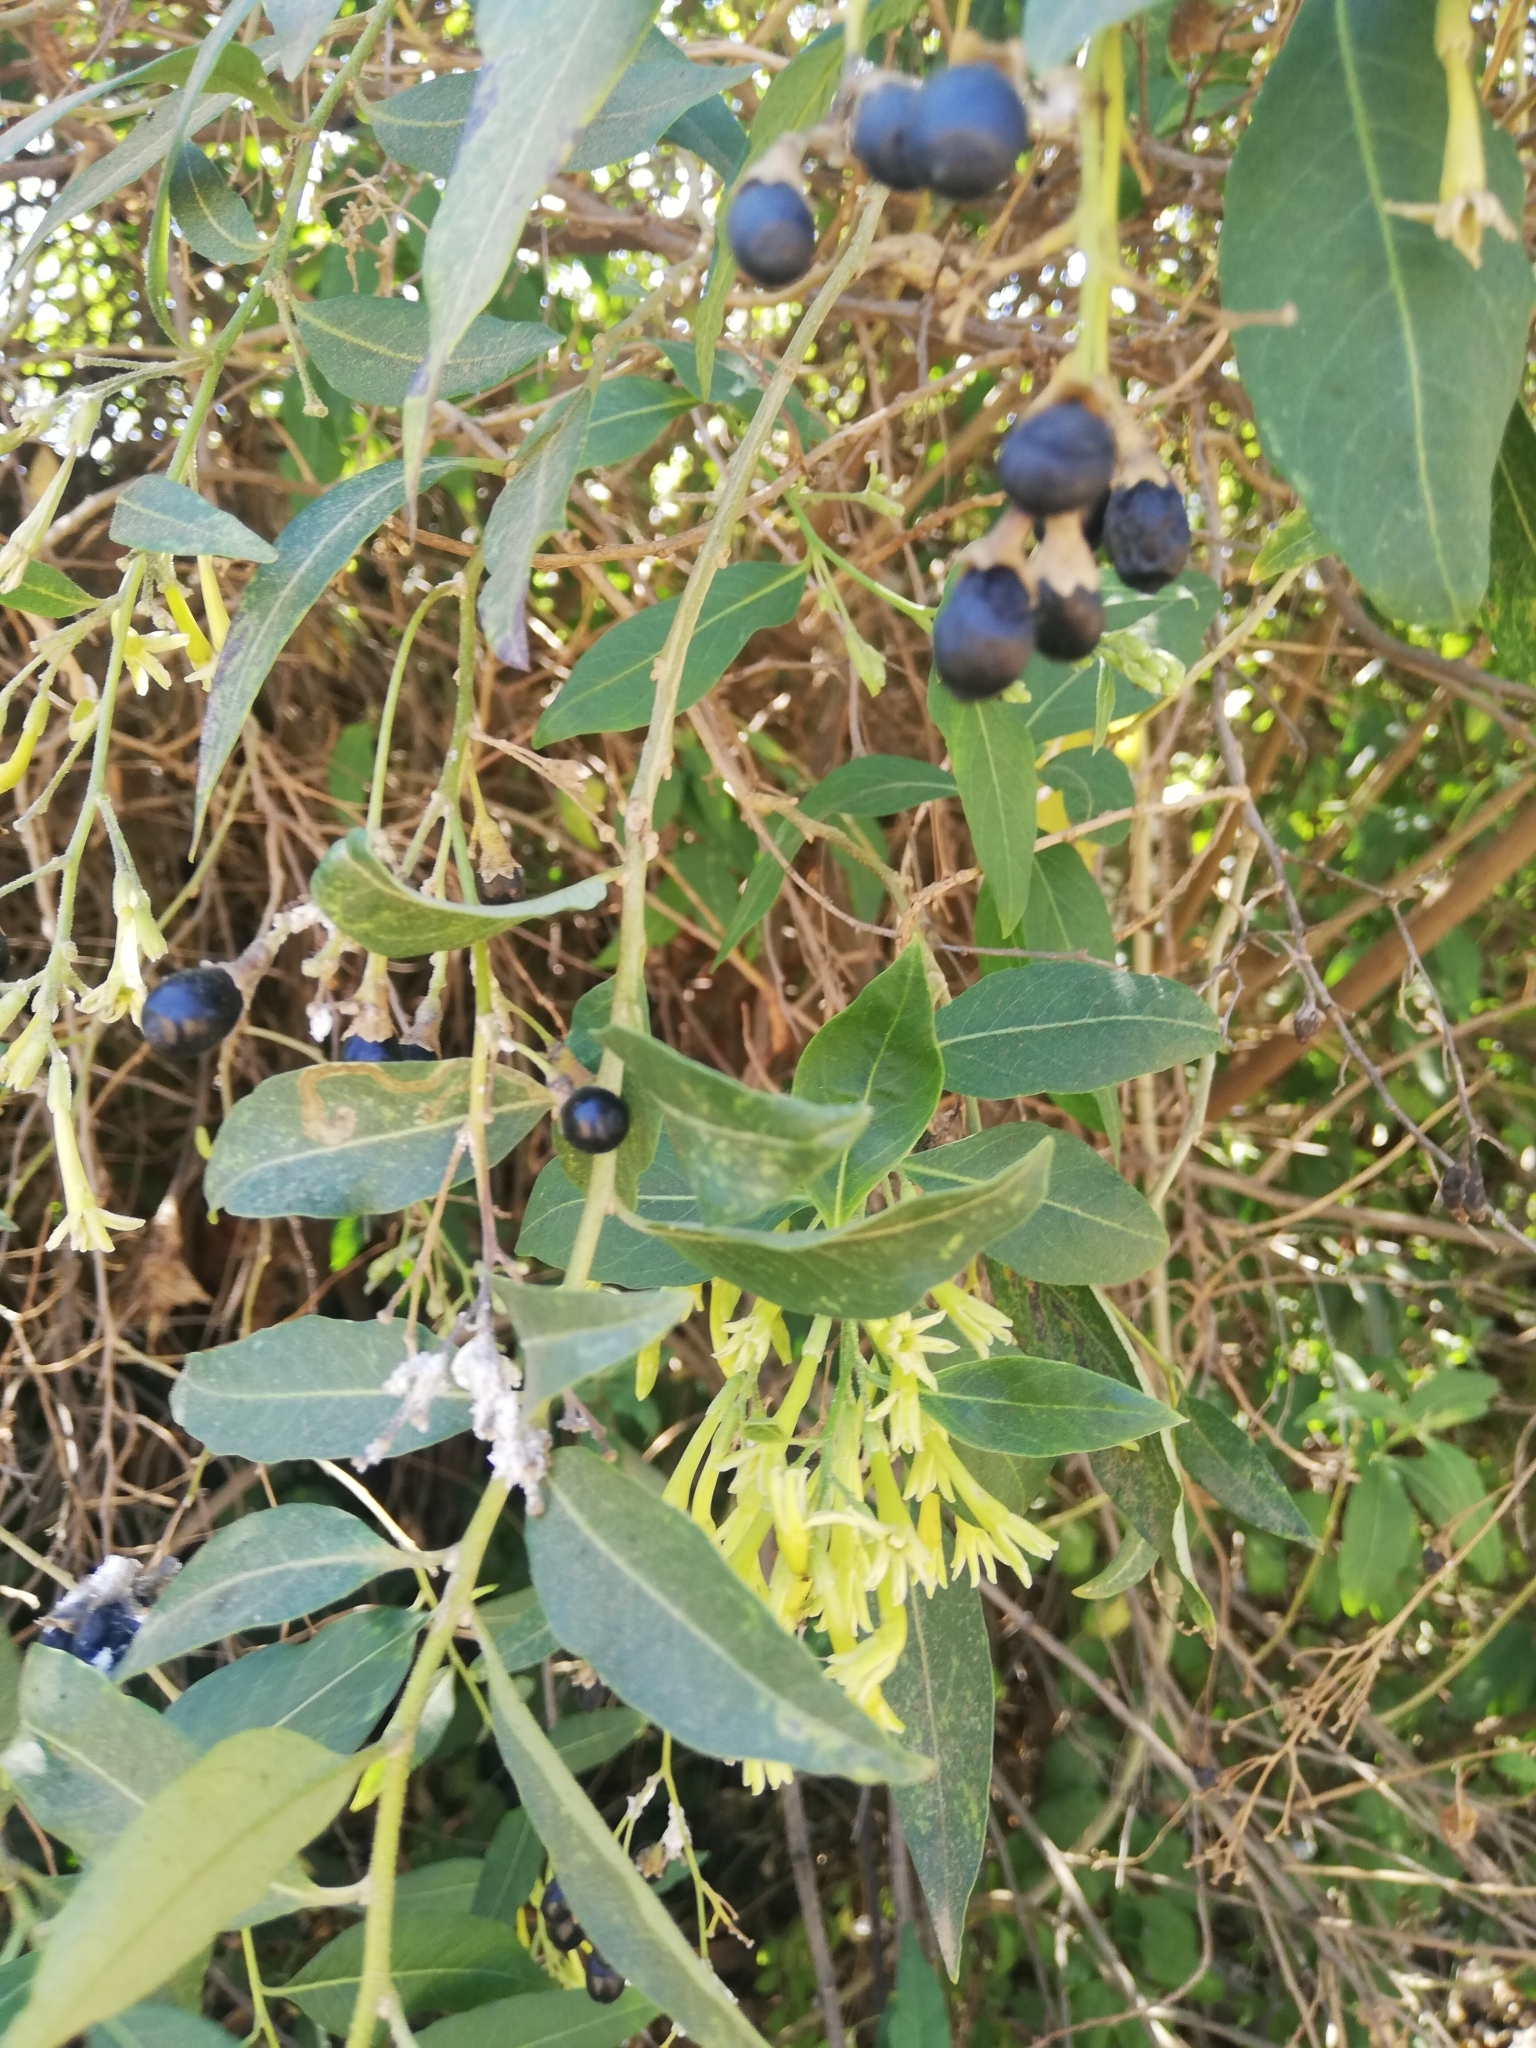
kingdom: Plantae
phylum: Tracheophyta
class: Magnoliopsida
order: Solanales
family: Solanaceae
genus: Cestrum
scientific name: Cestrum parqui
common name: Chilean cestrum
